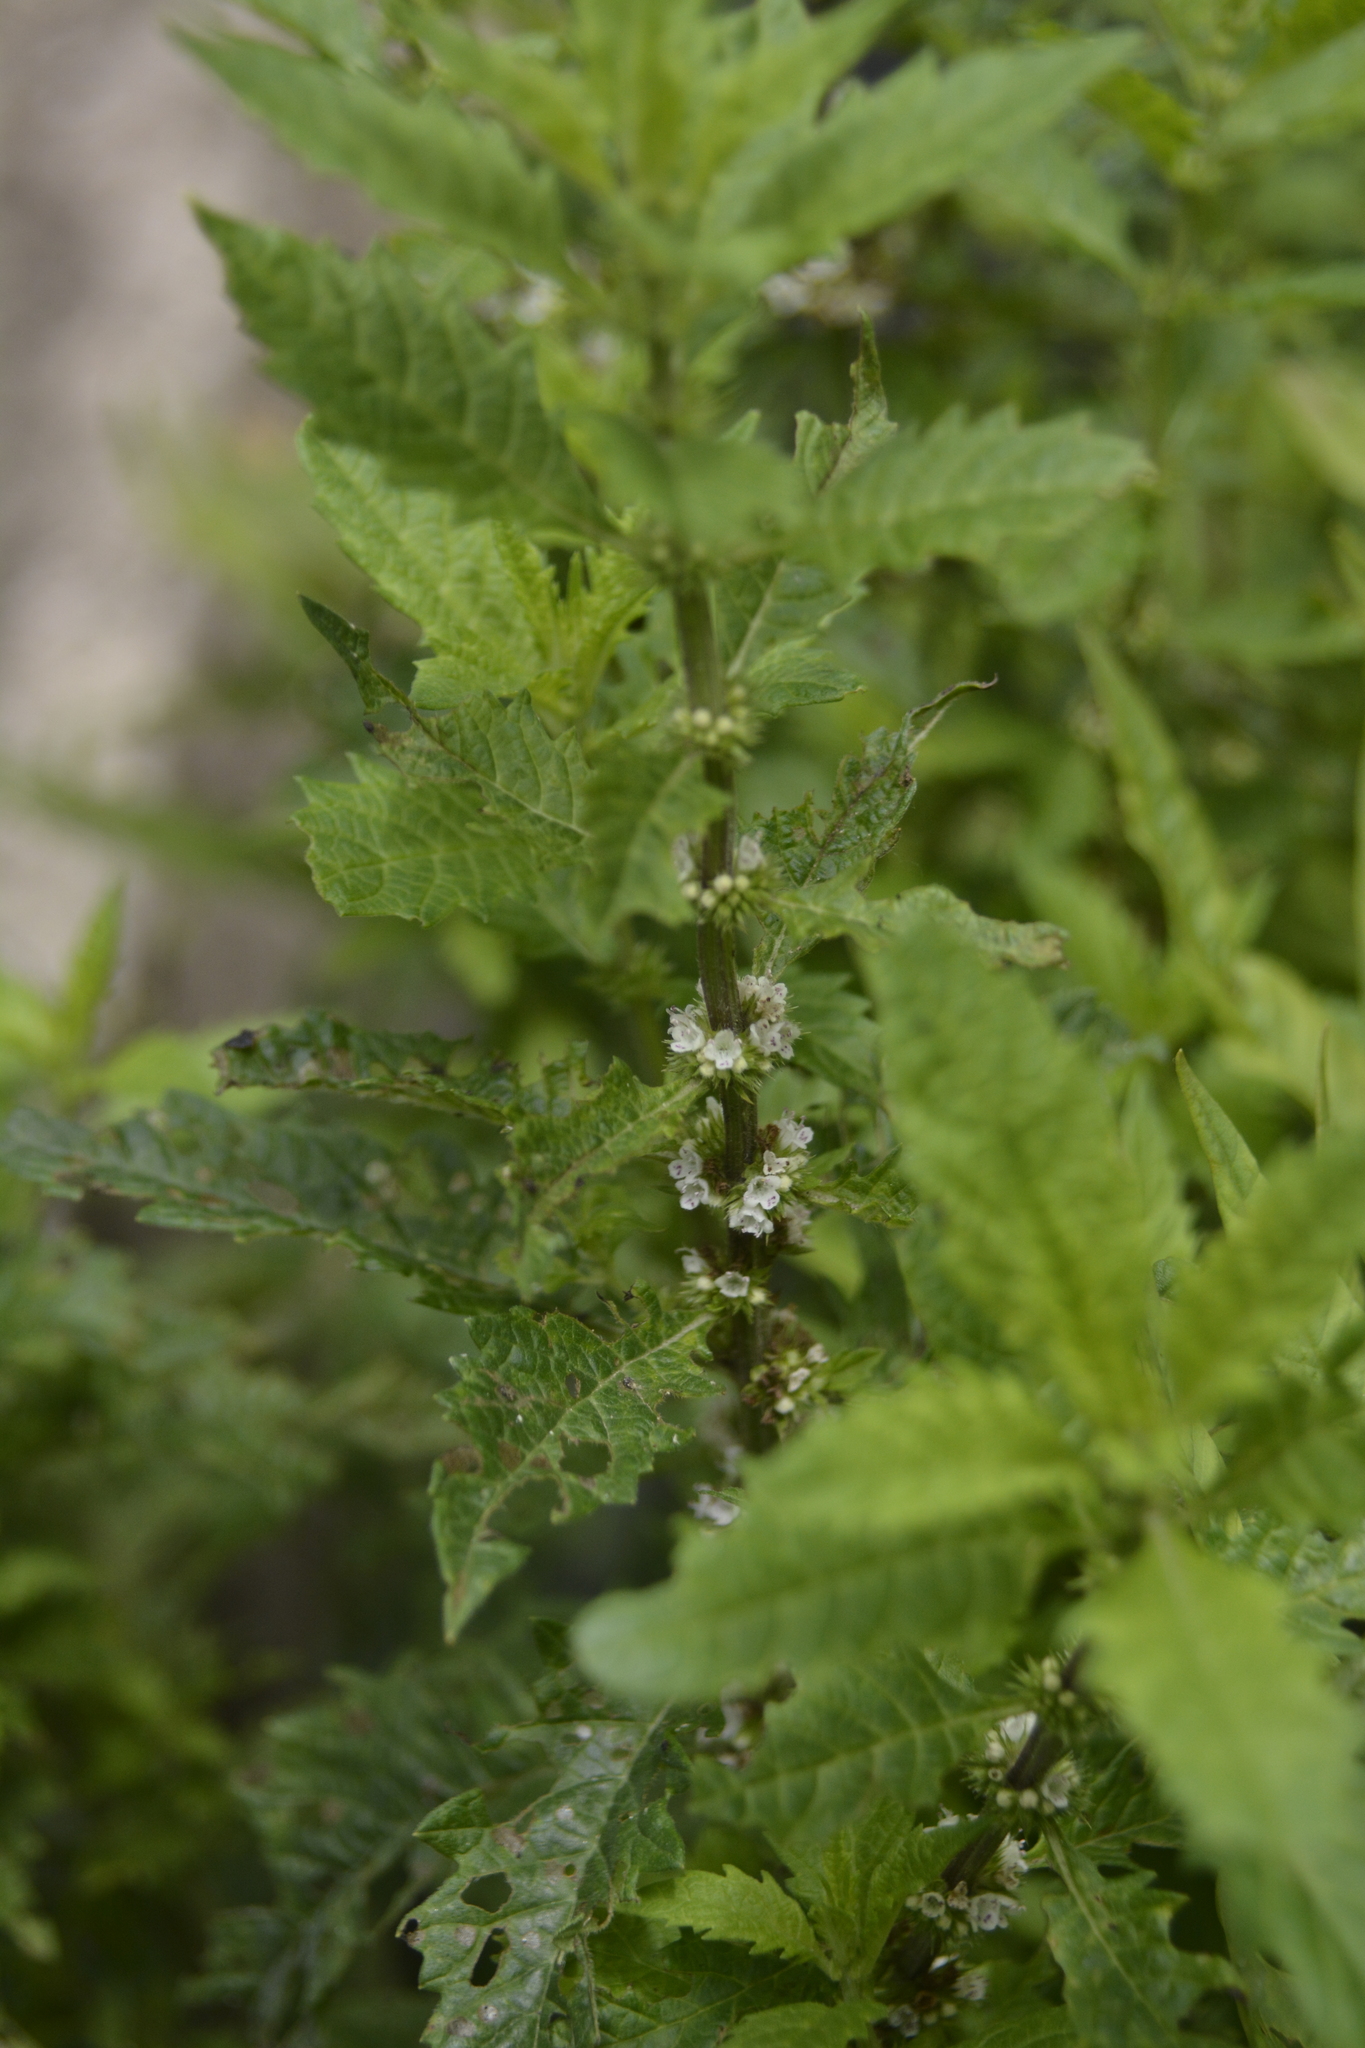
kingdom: Plantae
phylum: Tracheophyta
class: Magnoliopsida
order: Lamiales
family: Lamiaceae
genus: Lycopus
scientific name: Lycopus europaeus
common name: European bugleweed
